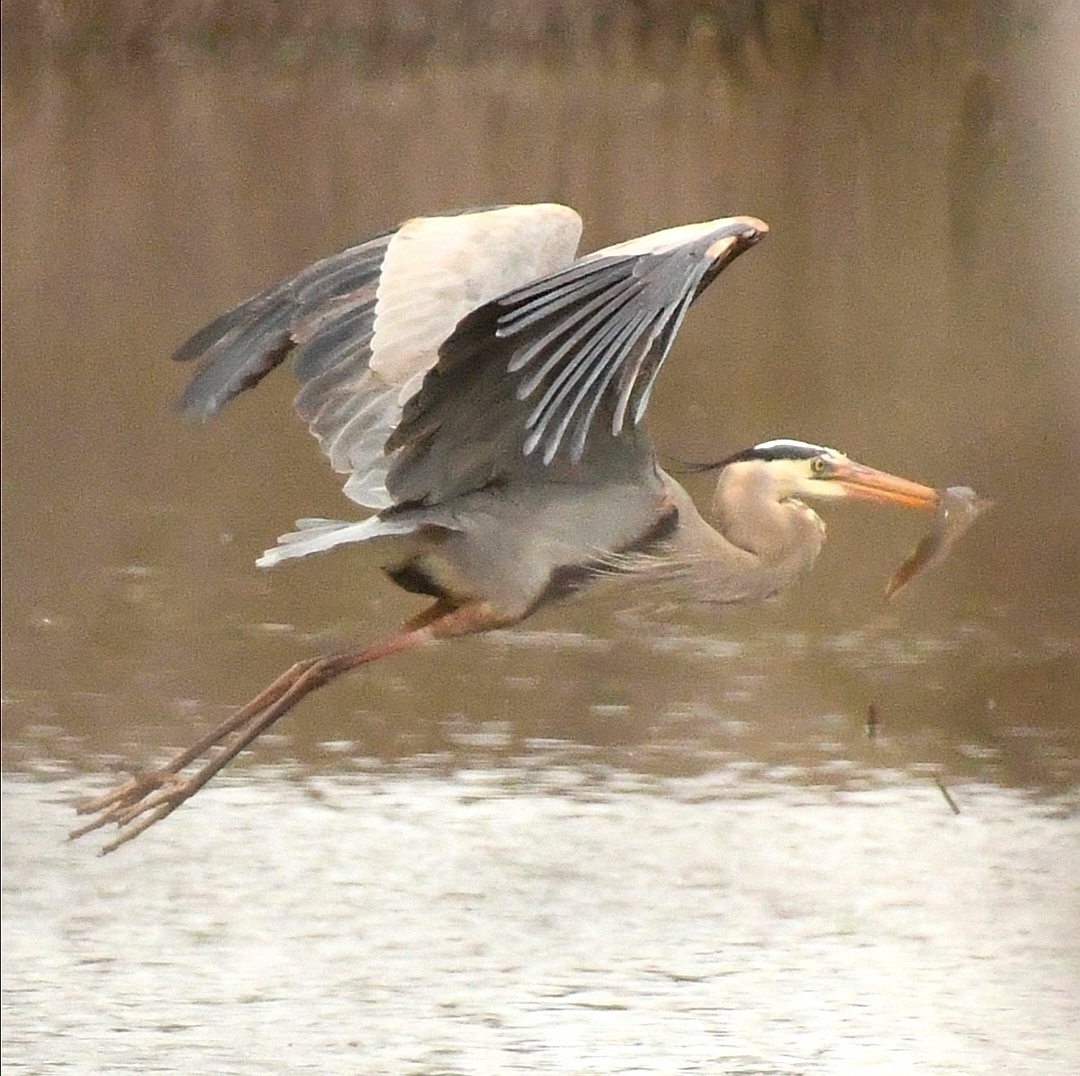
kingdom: Animalia
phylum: Chordata
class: Aves
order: Pelecaniformes
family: Ardeidae
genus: Ardea
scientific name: Ardea herodias
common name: Great blue heron
